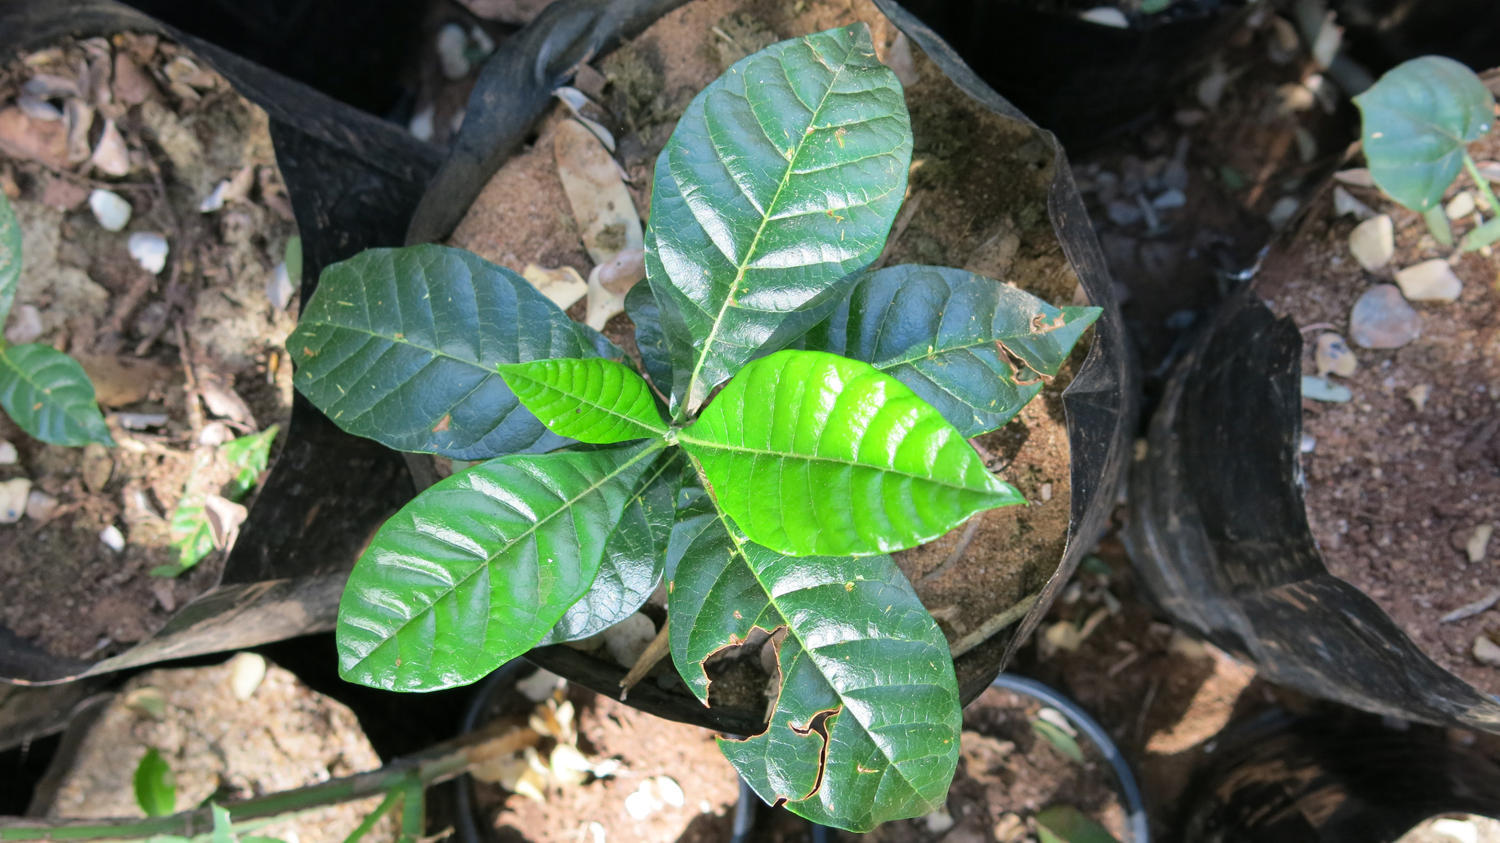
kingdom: Plantae
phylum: Tracheophyta
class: Magnoliopsida
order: Sapindales
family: Meliaceae
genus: Entandrophragma
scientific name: Entandrophragma caudatum
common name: Mountain-mahogany
